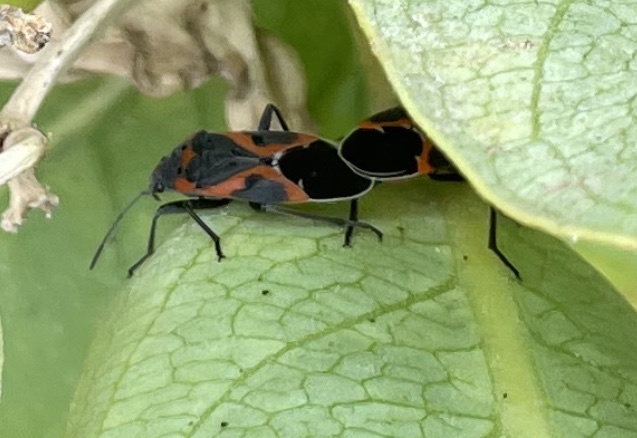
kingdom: Animalia
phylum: Arthropoda
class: Insecta
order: Hemiptera
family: Lygaeidae
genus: Lygaeus
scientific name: Lygaeus kalmii
